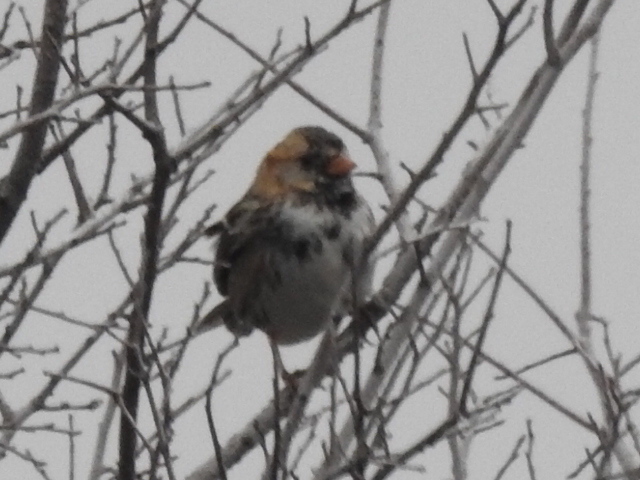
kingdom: Animalia
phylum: Chordata
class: Aves
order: Passeriformes
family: Passerellidae
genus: Zonotrichia
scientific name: Zonotrichia querula
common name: Harris's sparrow
